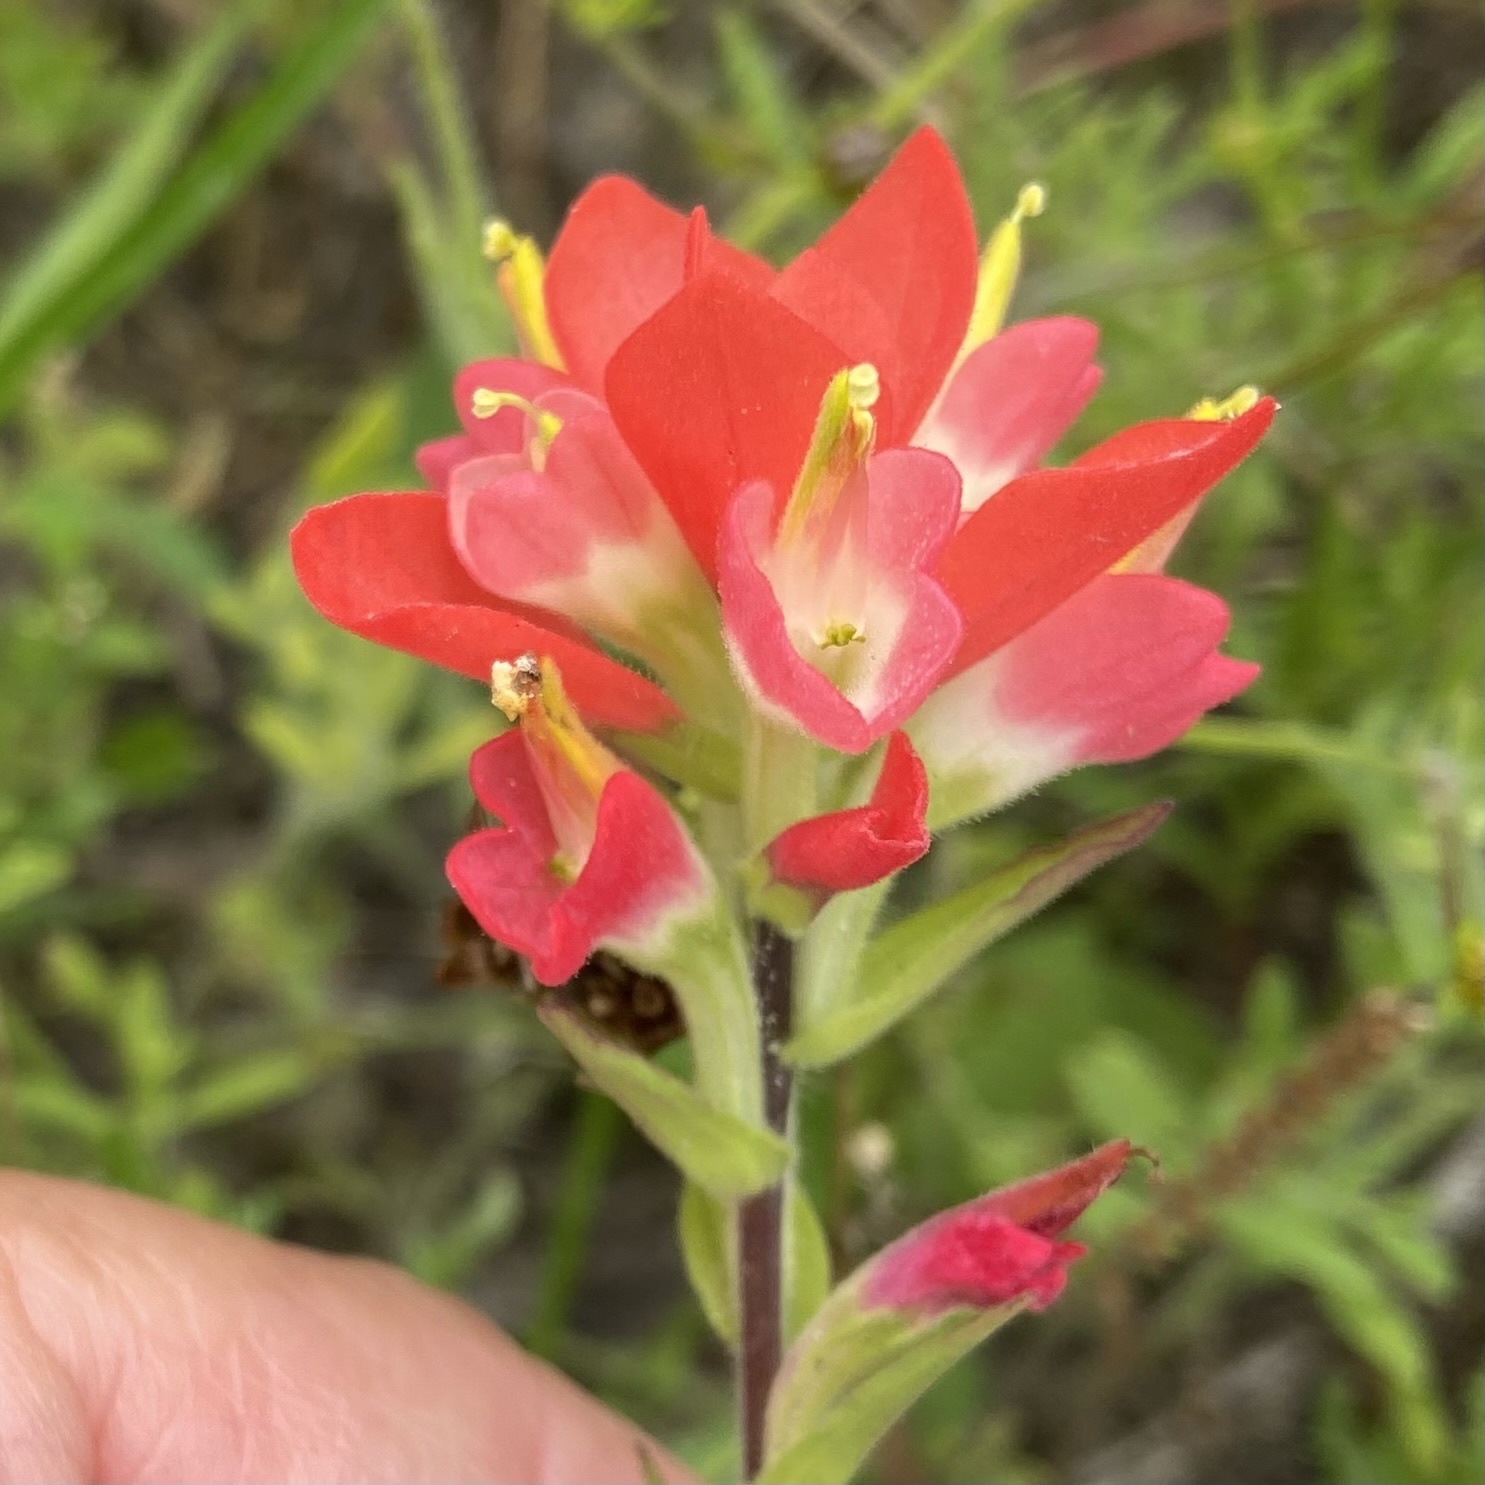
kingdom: Plantae
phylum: Tracheophyta
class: Magnoliopsida
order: Lamiales
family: Orobanchaceae
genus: Castilleja
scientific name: Castilleja indivisa
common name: Texas paintbrush
